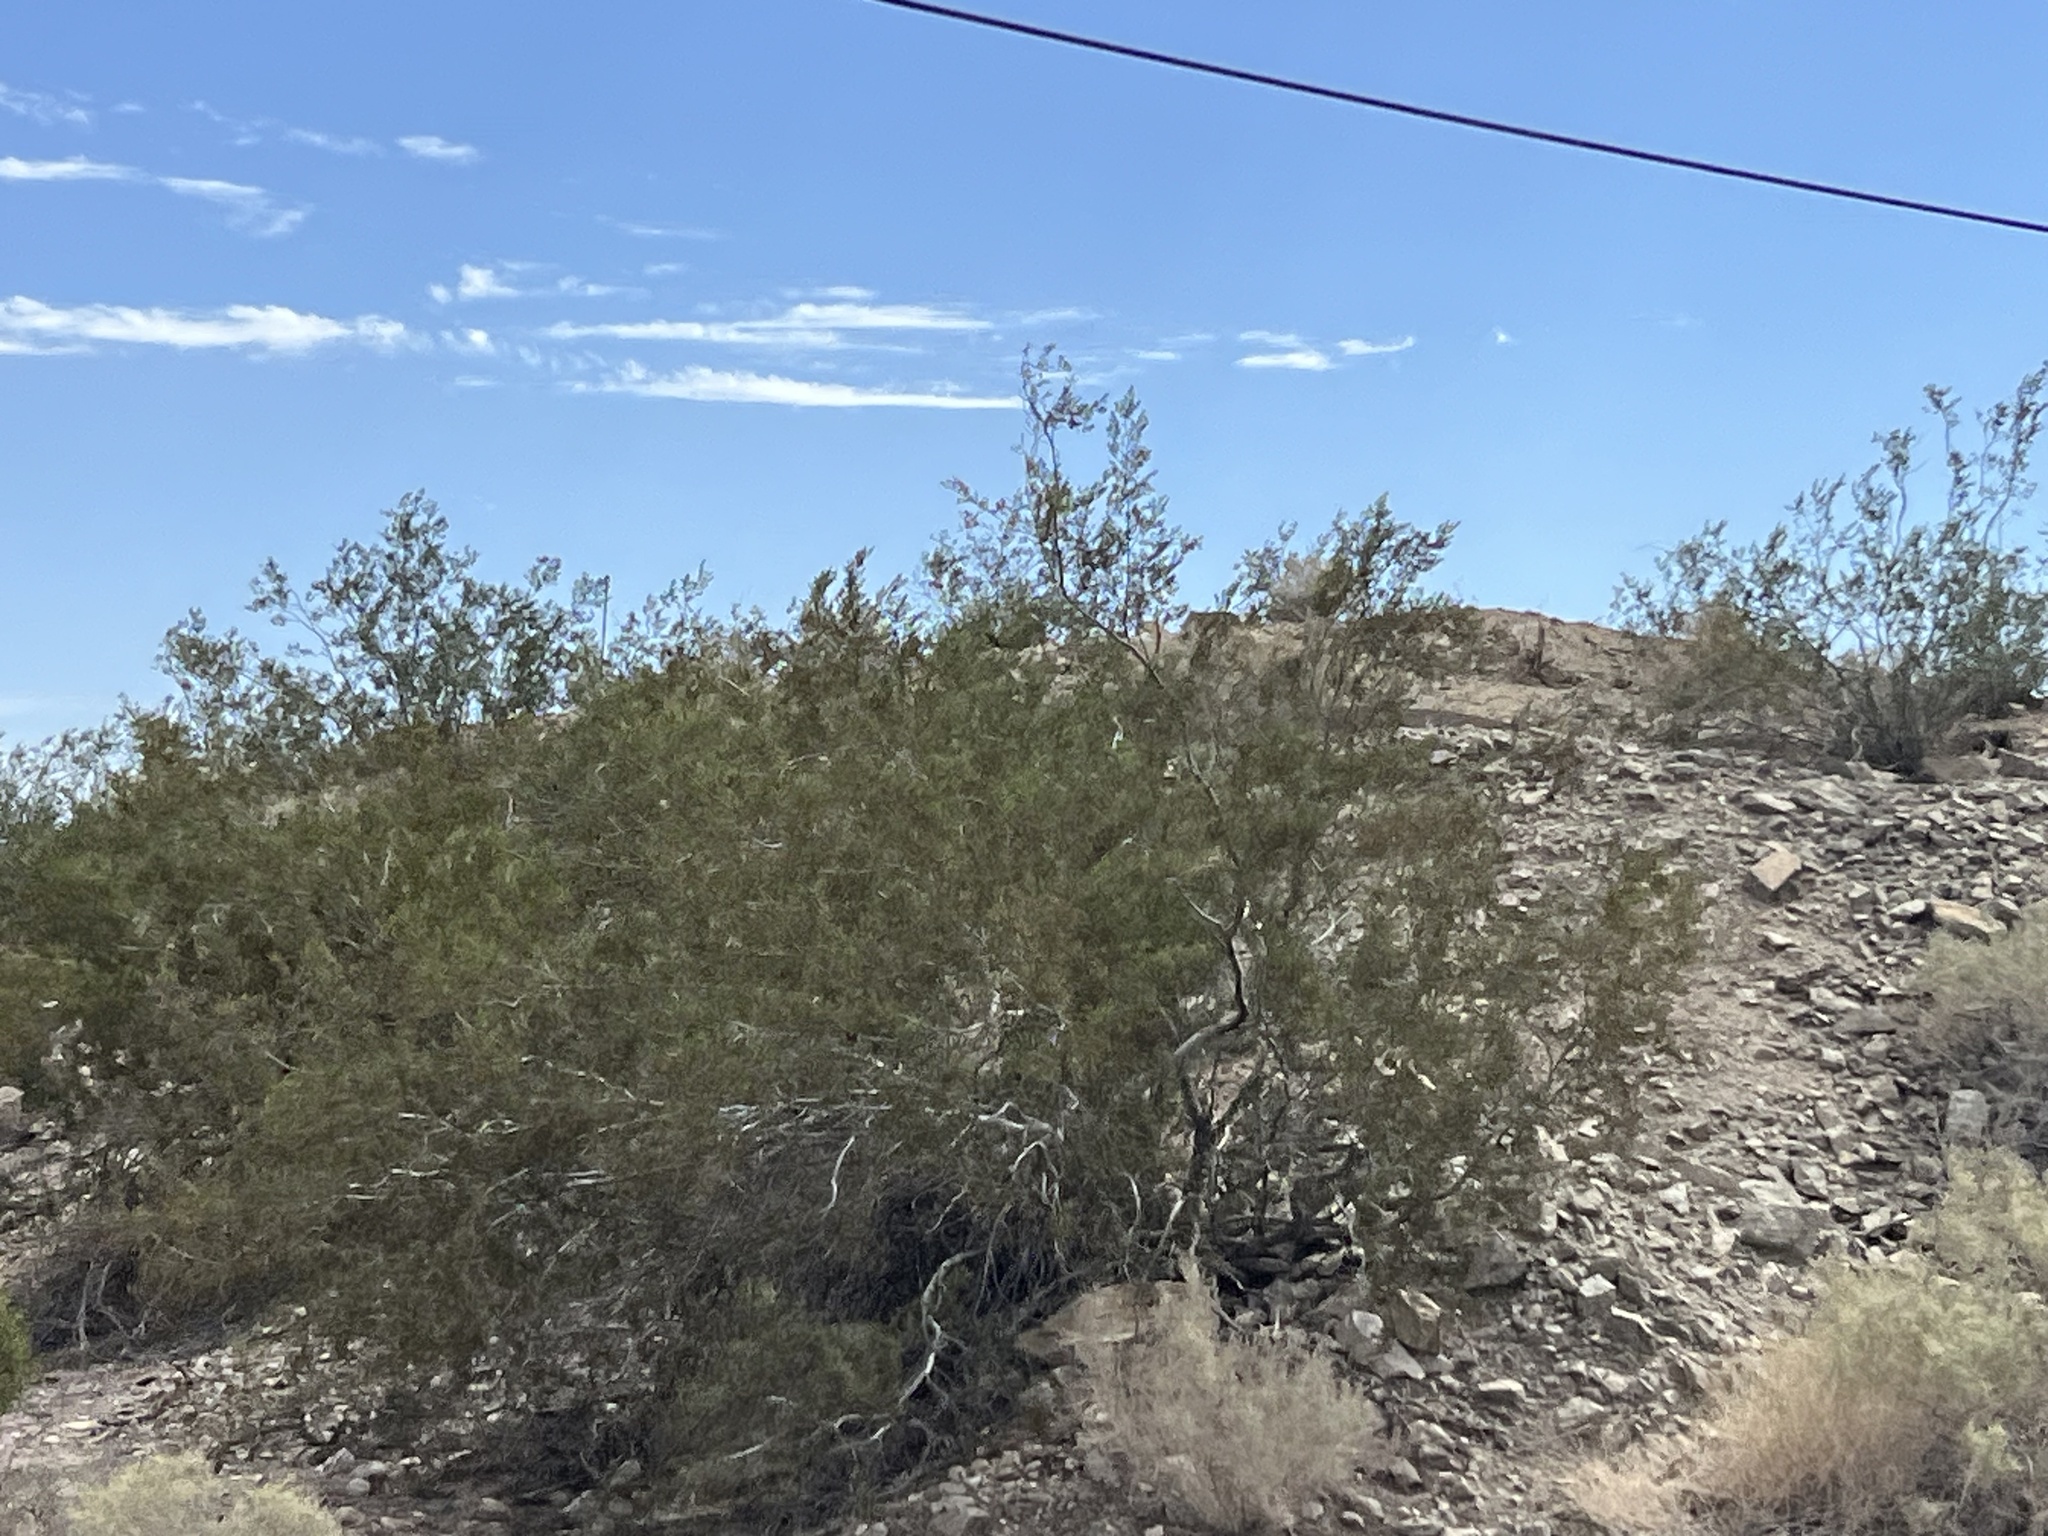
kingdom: Plantae
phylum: Tracheophyta
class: Magnoliopsida
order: Zygophyllales
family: Zygophyllaceae
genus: Larrea
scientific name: Larrea tridentata
